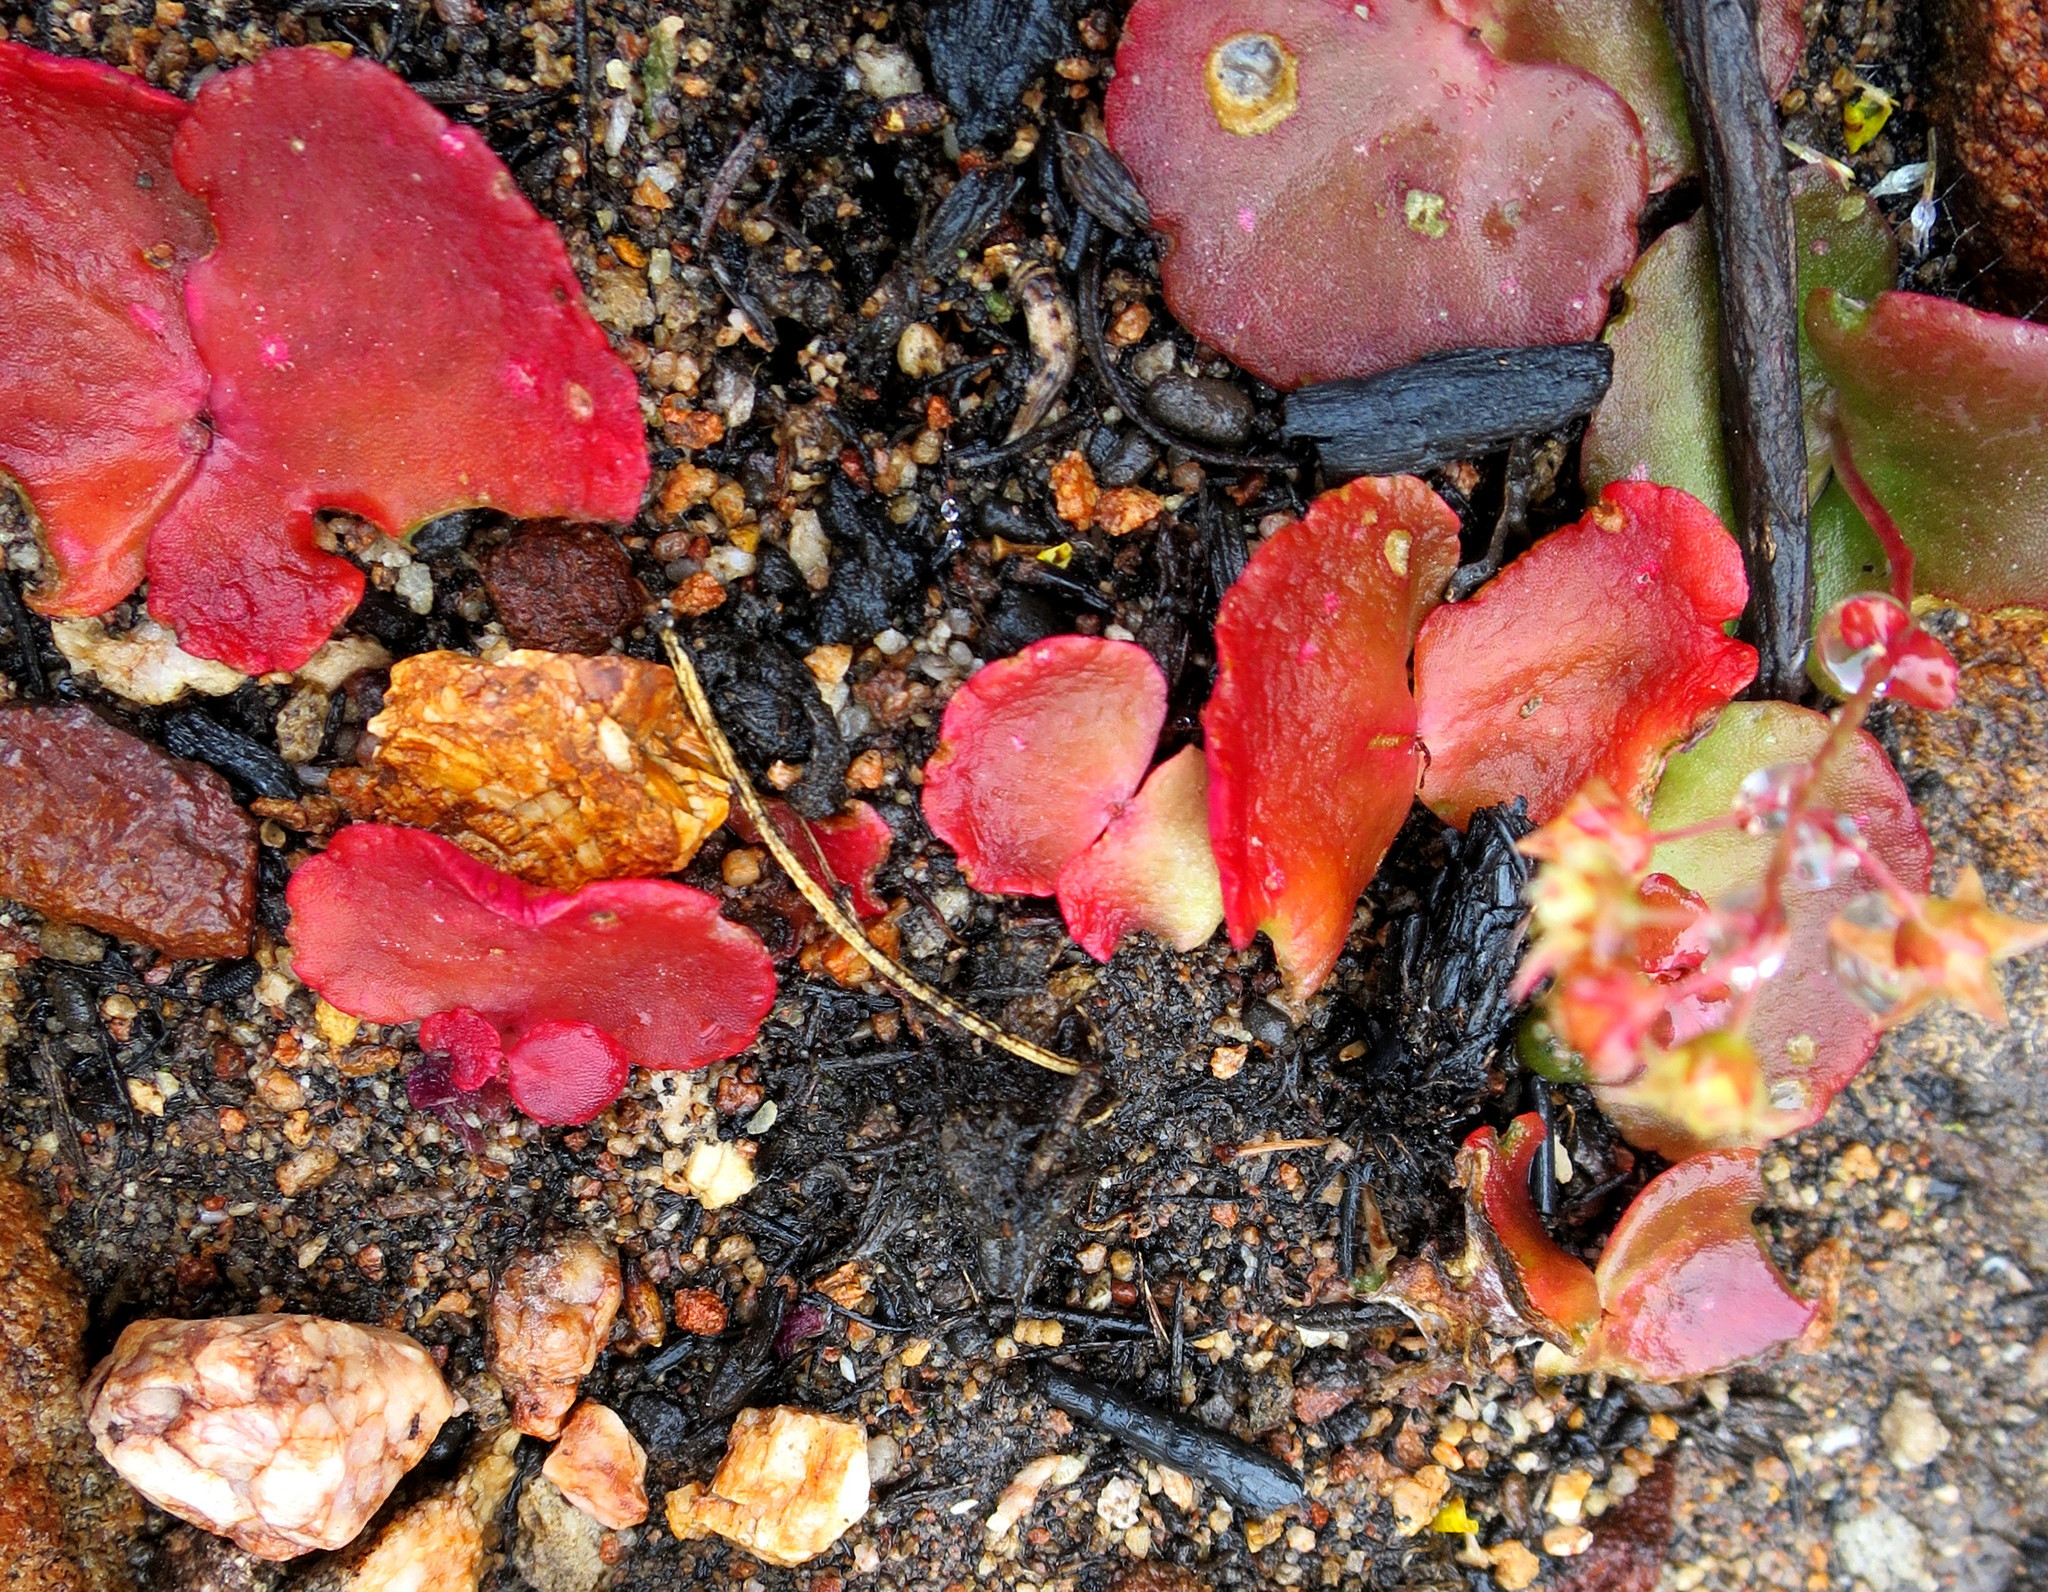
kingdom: Plantae
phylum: Tracheophyta
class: Magnoliopsida
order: Saxifragales
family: Crassulaceae
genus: Crassula
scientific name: Crassula saxifraga
